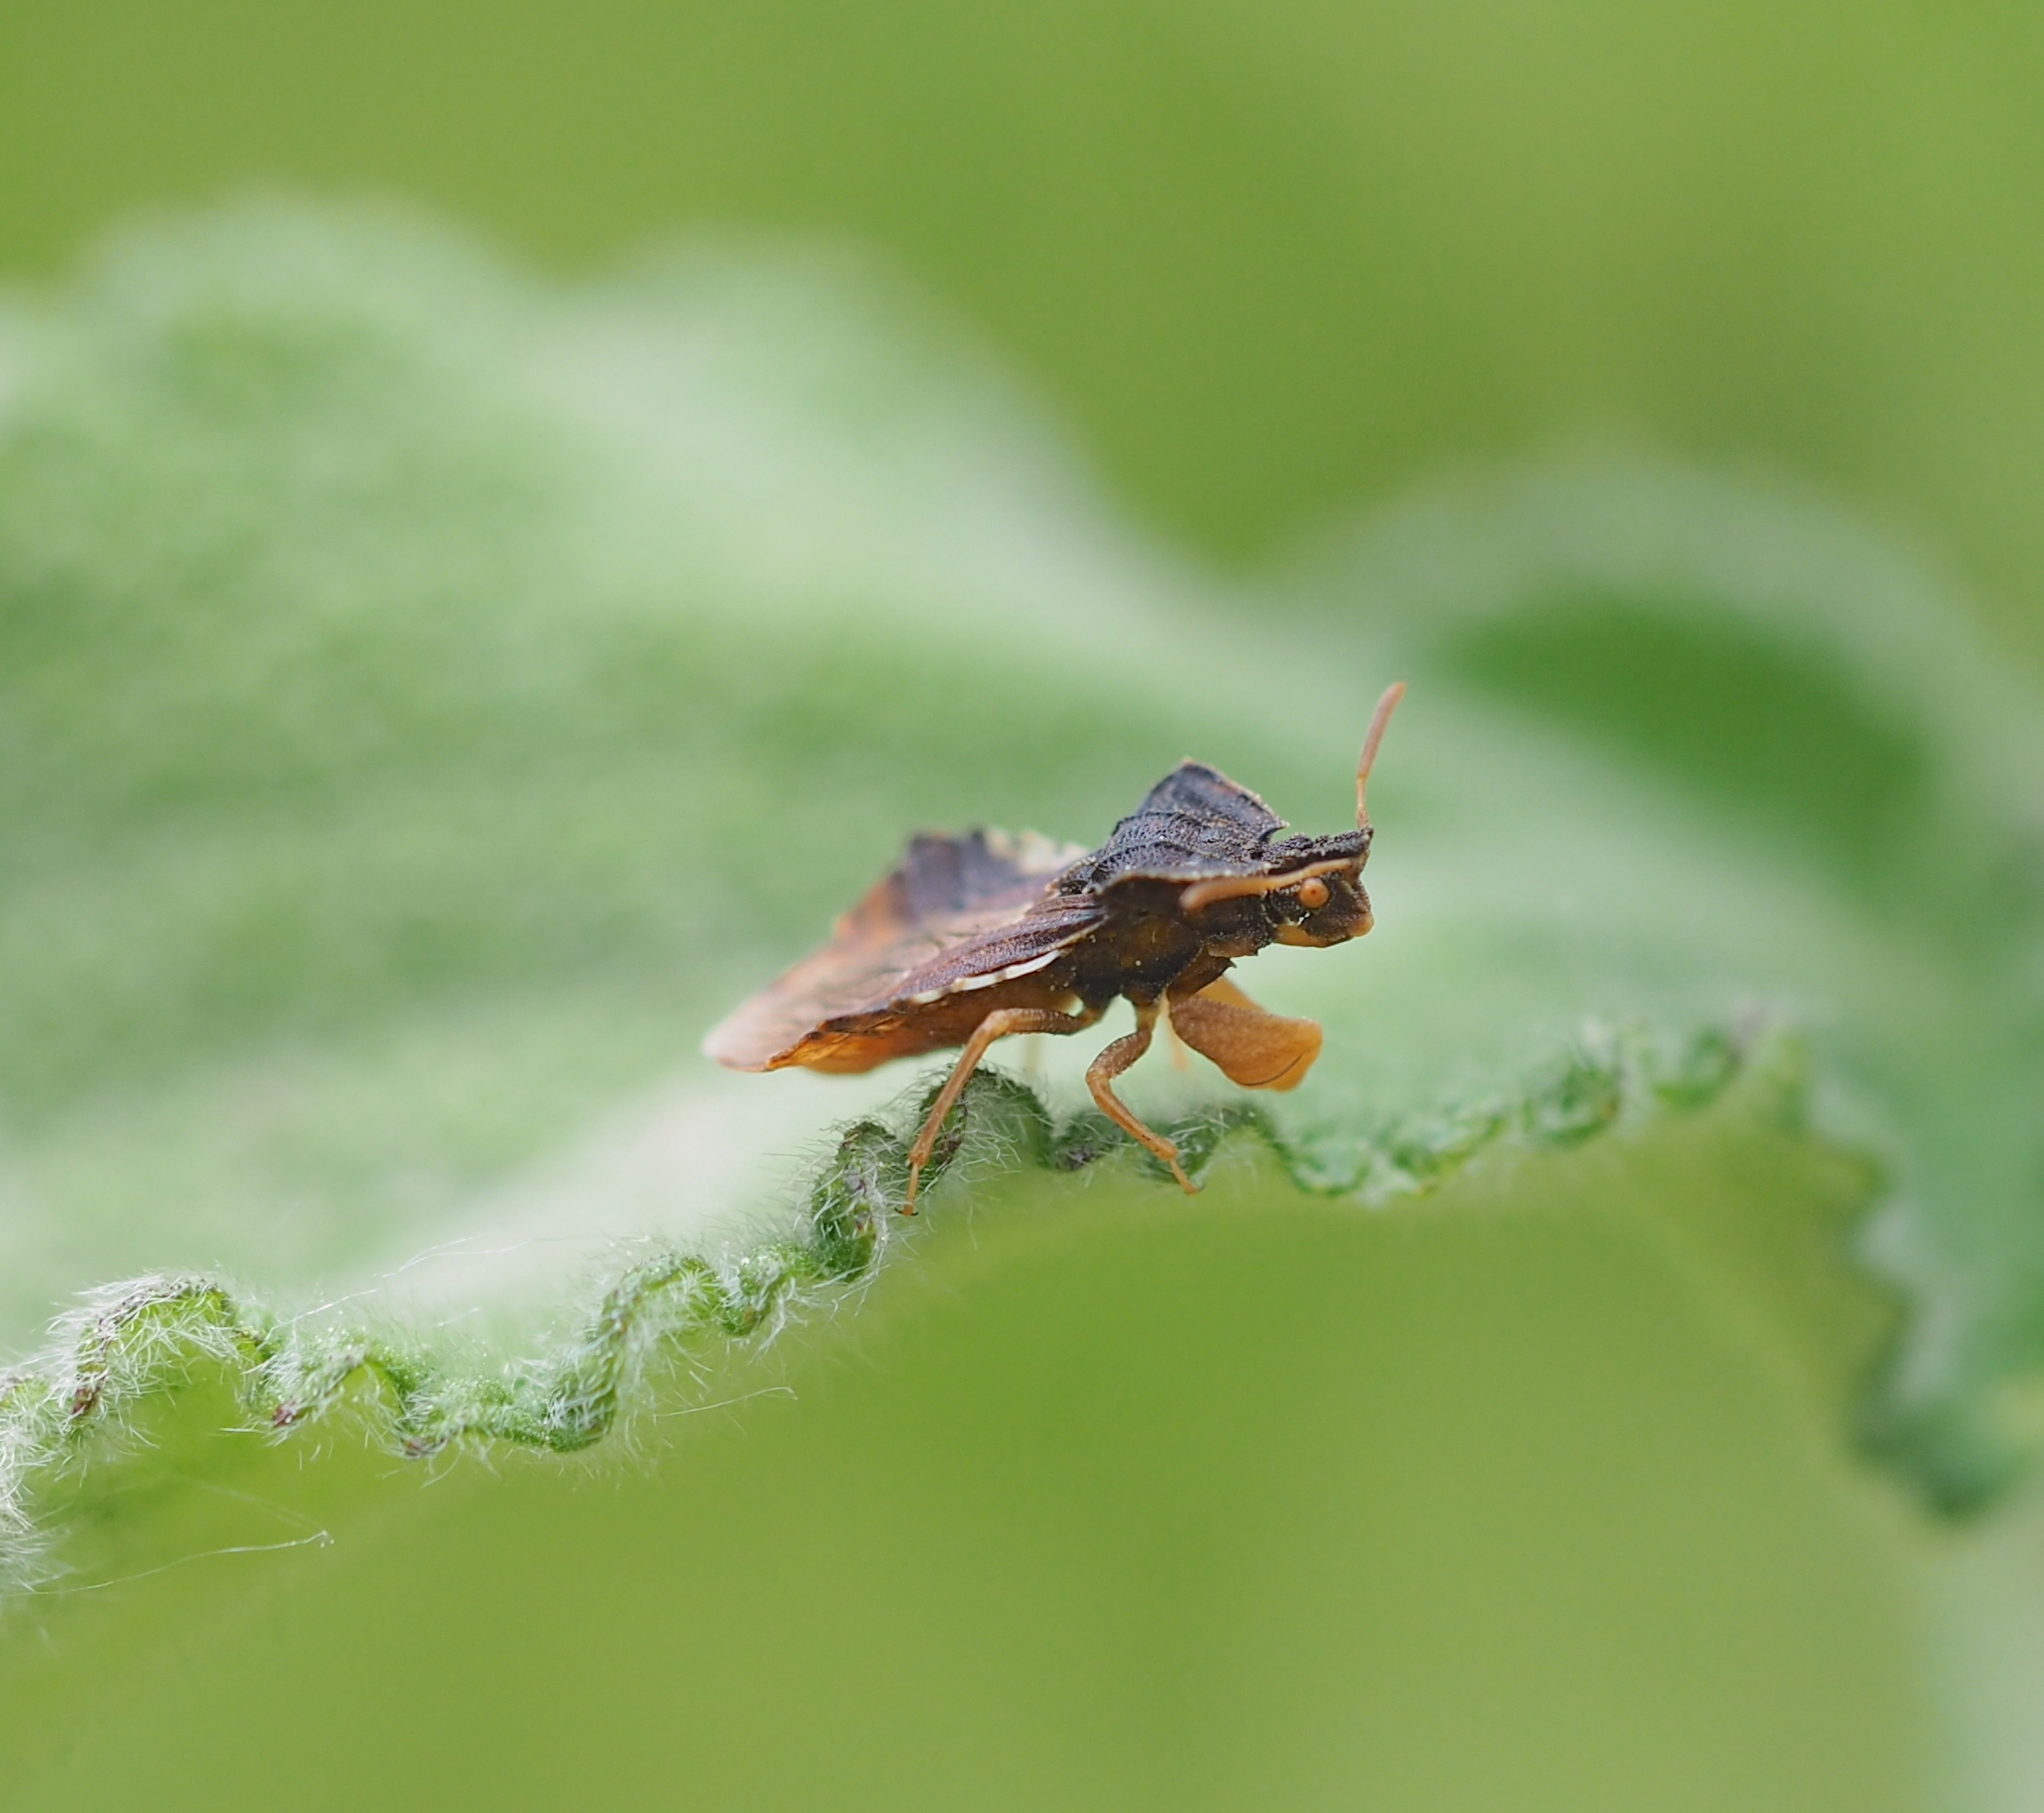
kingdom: Animalia
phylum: Arthropoda
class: Insecta
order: Hemiptera
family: Reduviidae
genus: Phymata
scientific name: Phymata crassipes
